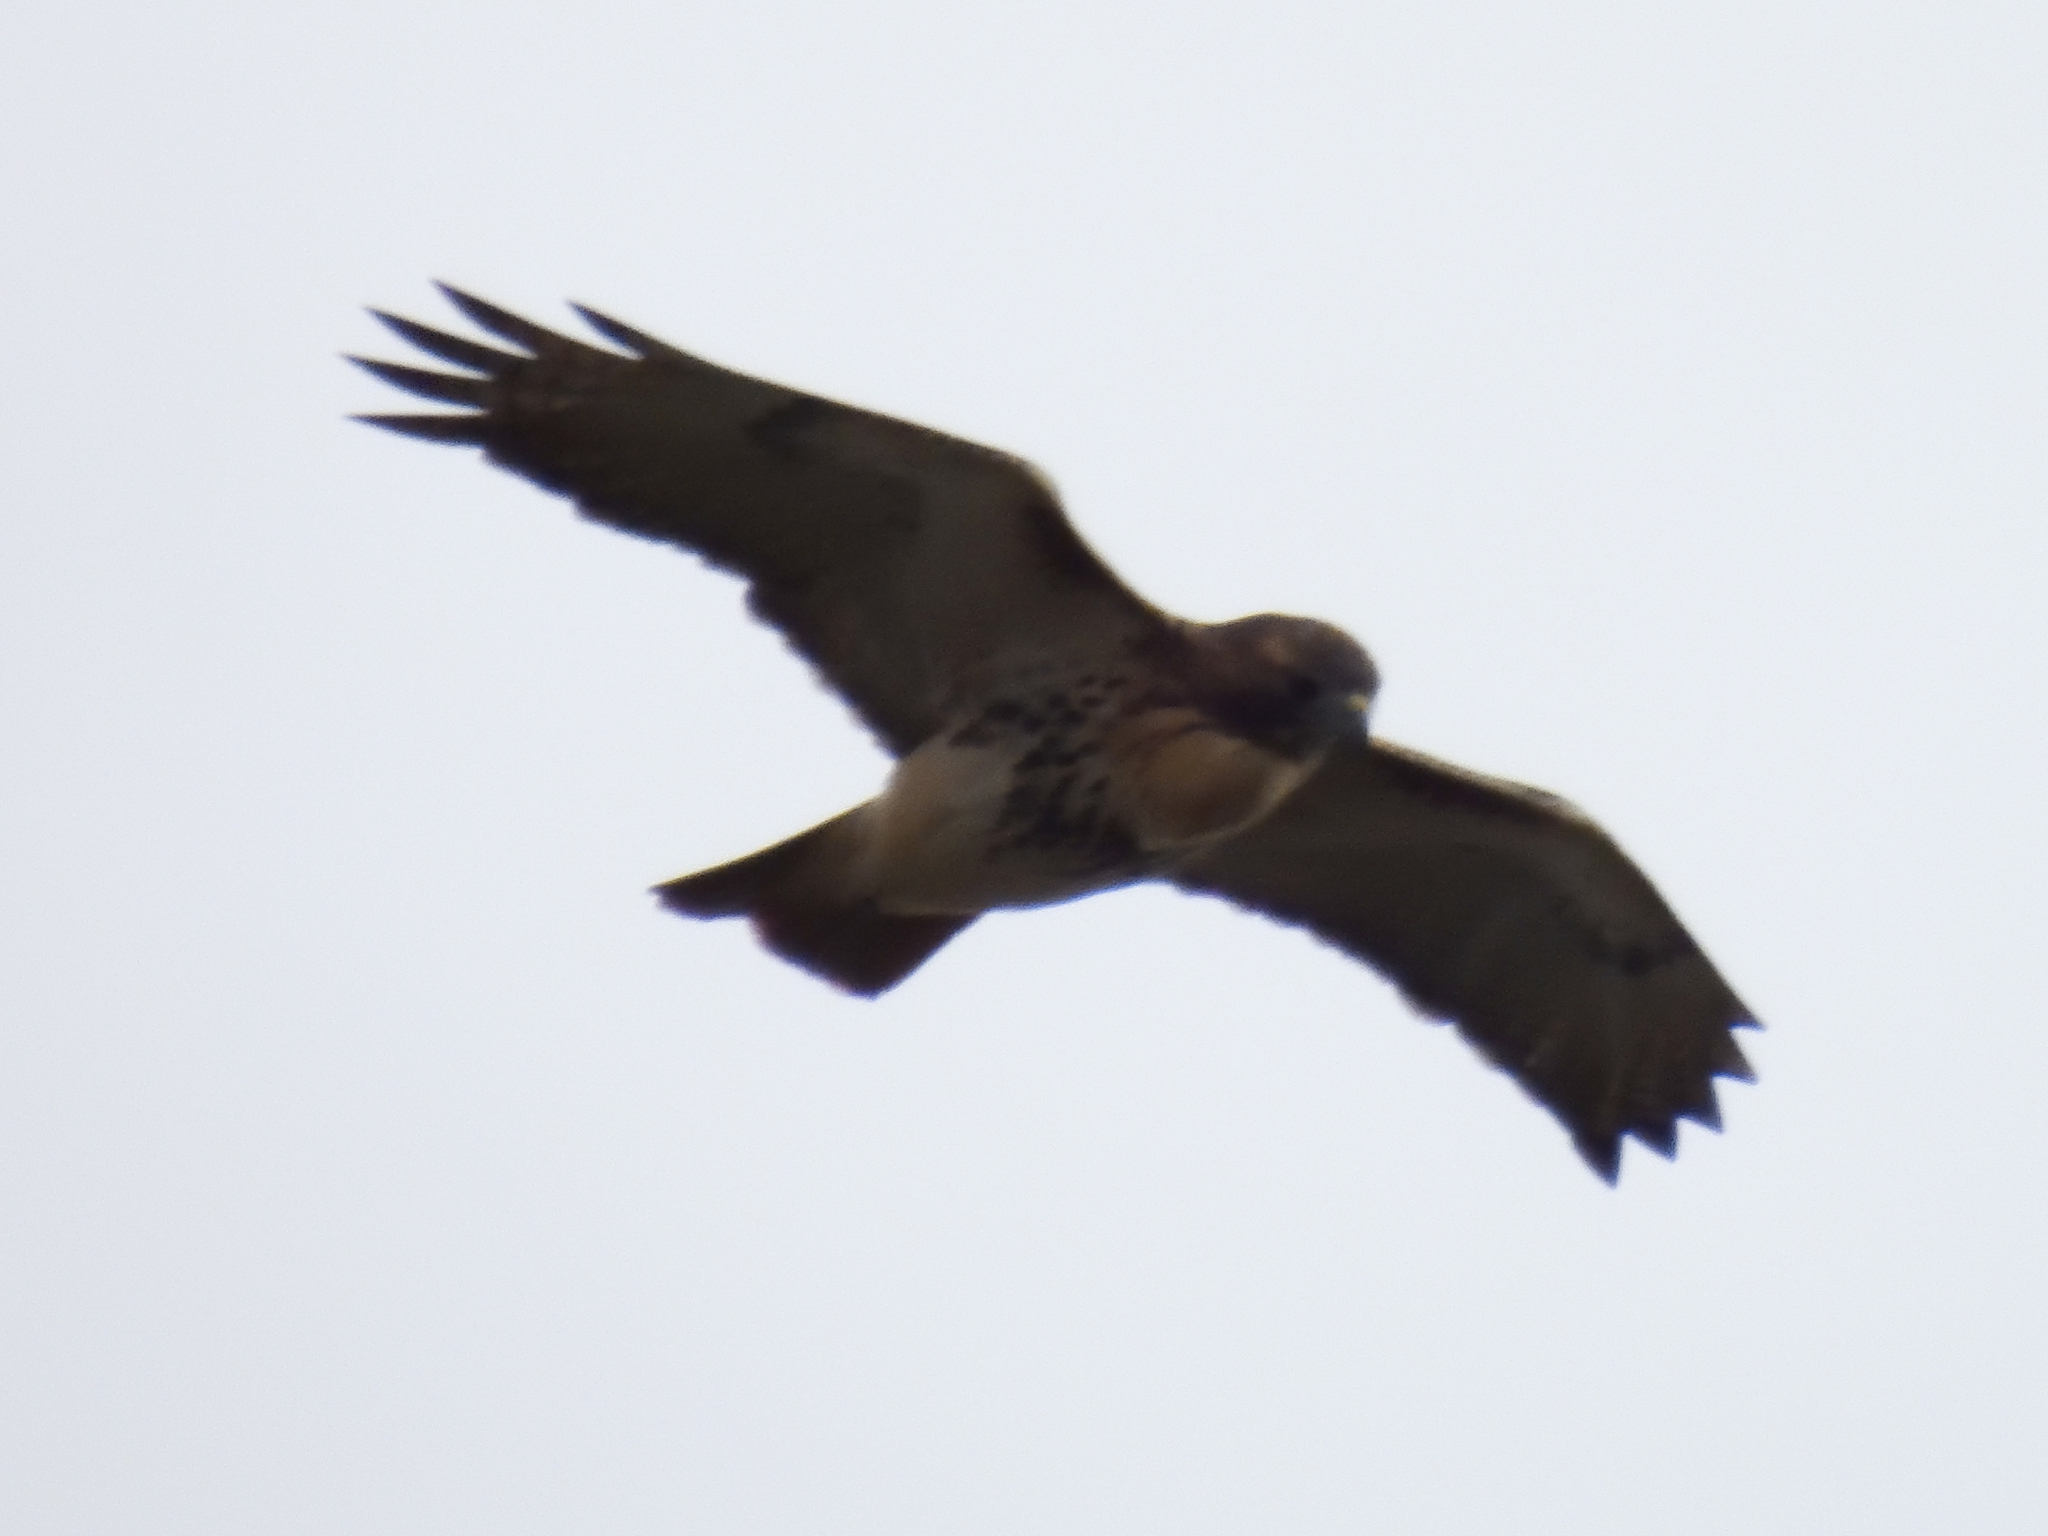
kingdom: Animalia
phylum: Chordata
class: Aves
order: Accipitriformes
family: Accipitridae
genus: Buteo
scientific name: Buteo jamaicensis
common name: Red-tailed hawk
